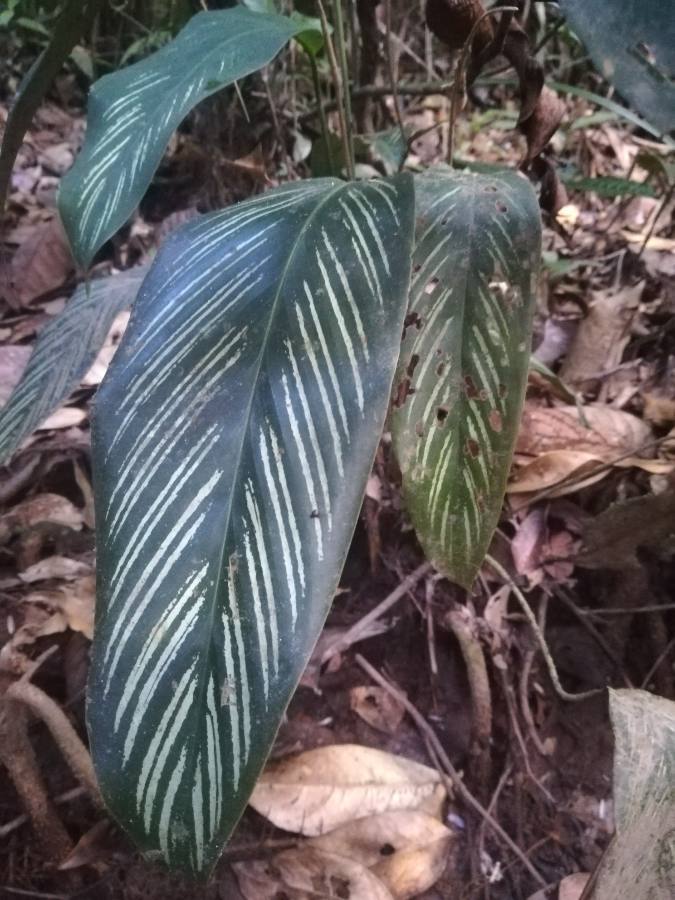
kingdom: Plantae
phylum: Tracheophyta
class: Liliopsida
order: Zingiberales
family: Marantaceae
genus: Goeppertia
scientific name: Goeppertia elliptica
